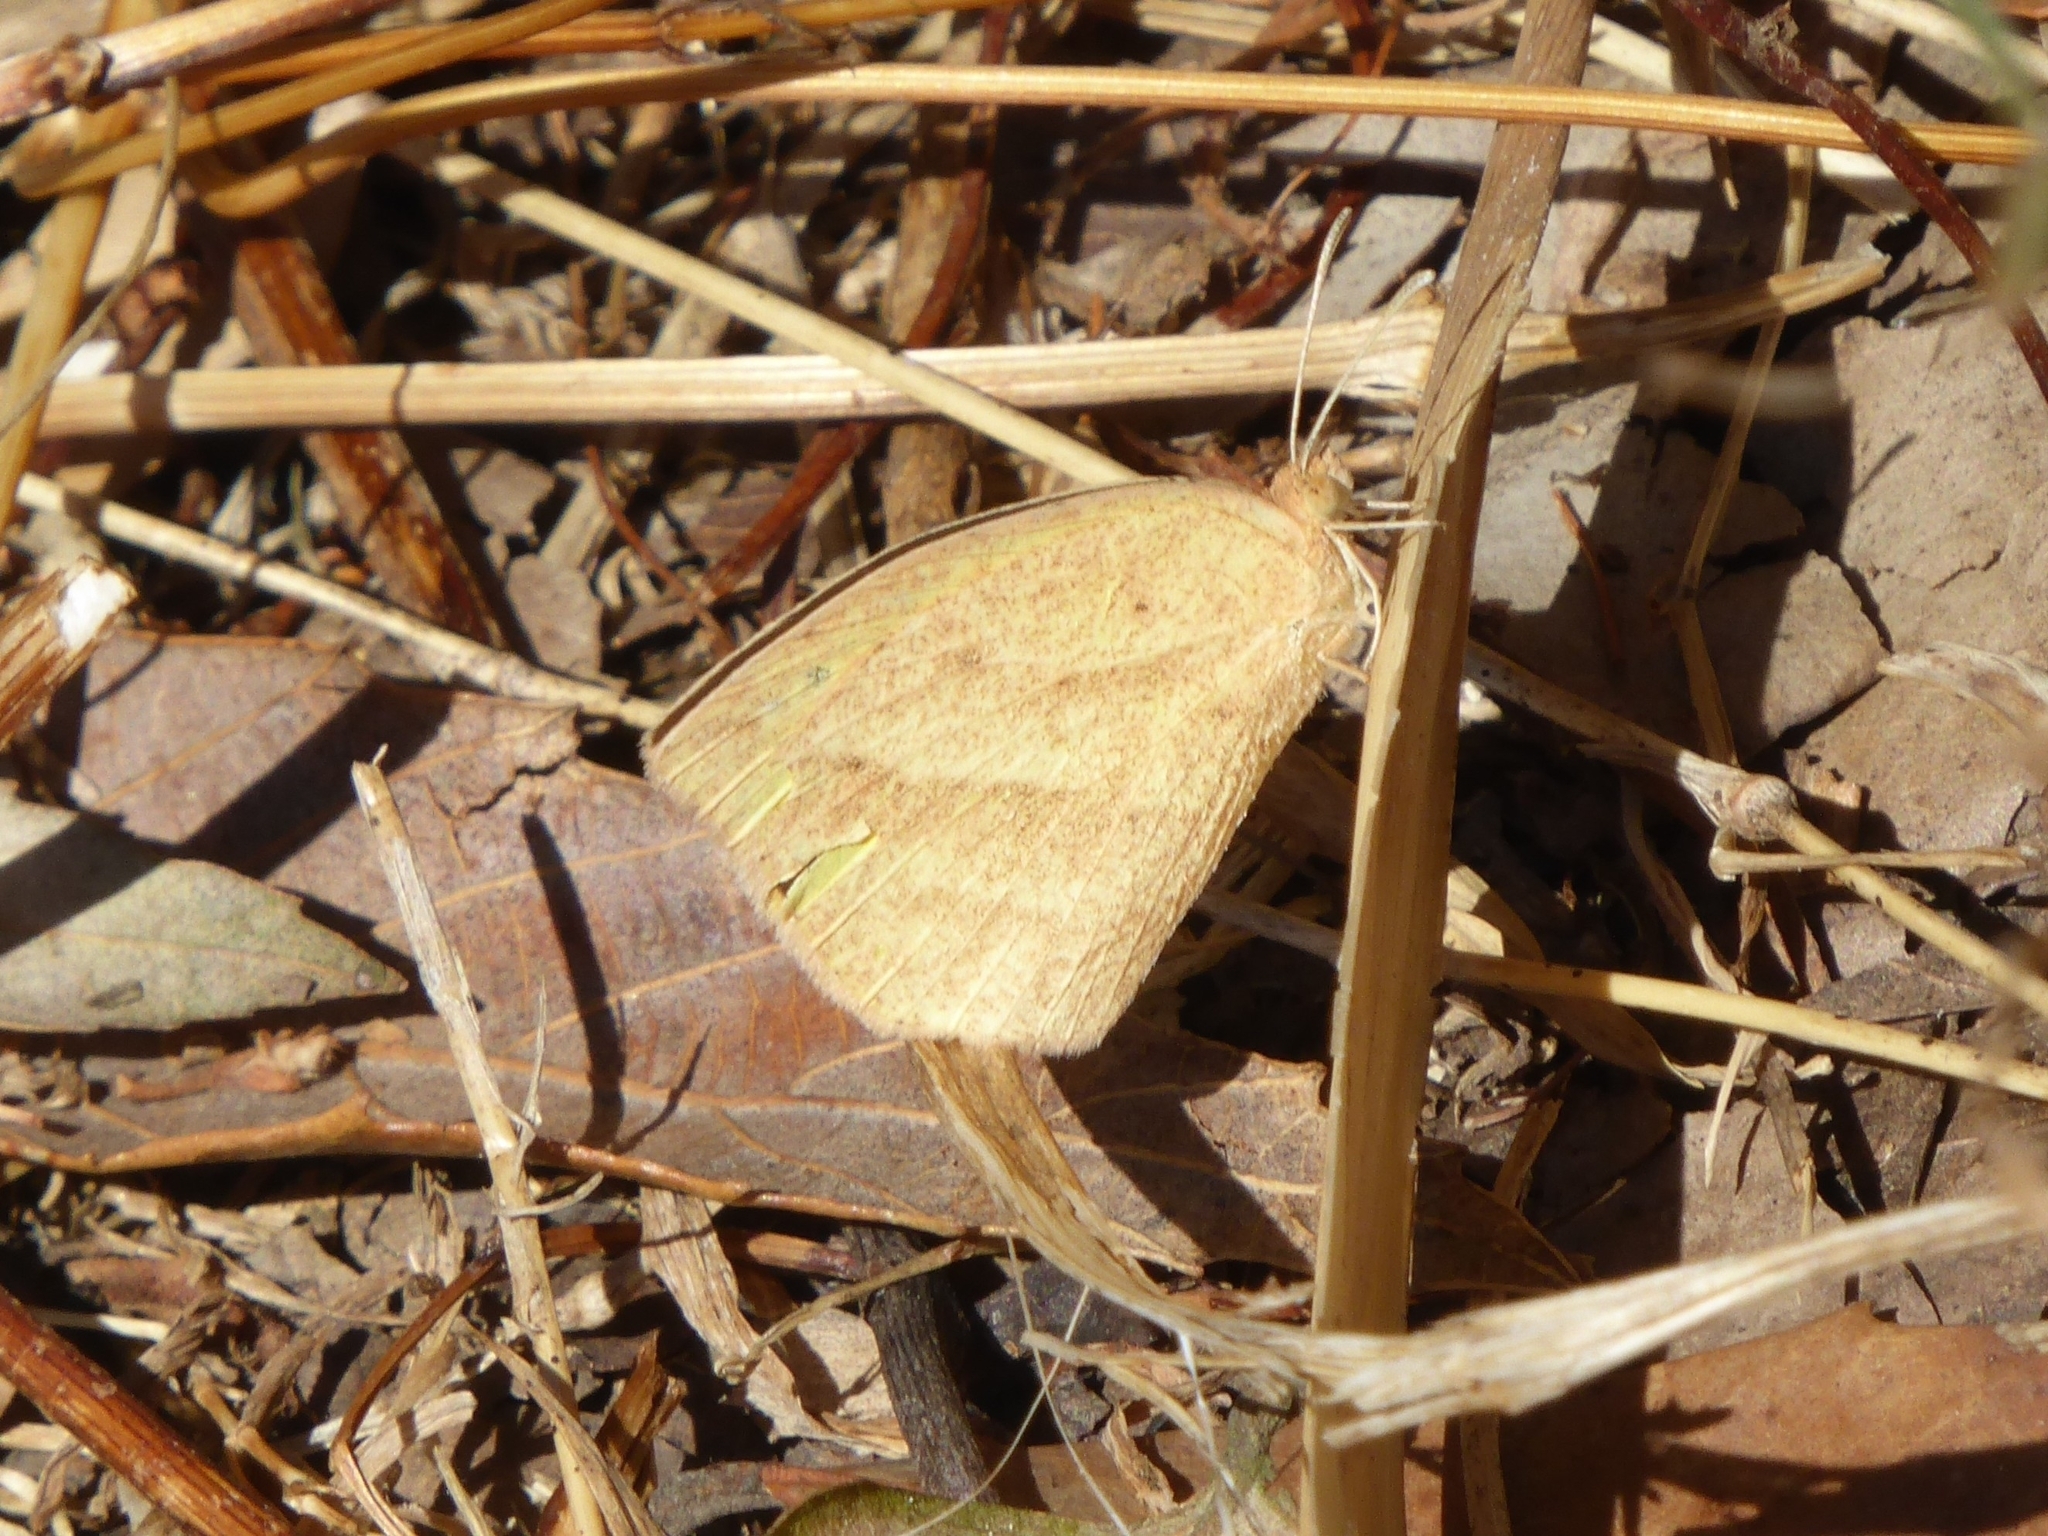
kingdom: Animalia
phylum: Arthropoda
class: Insecta
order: Lepidoptera
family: Pieridae
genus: Eurema
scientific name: Eurema laeta
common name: Spotless grass yellow
